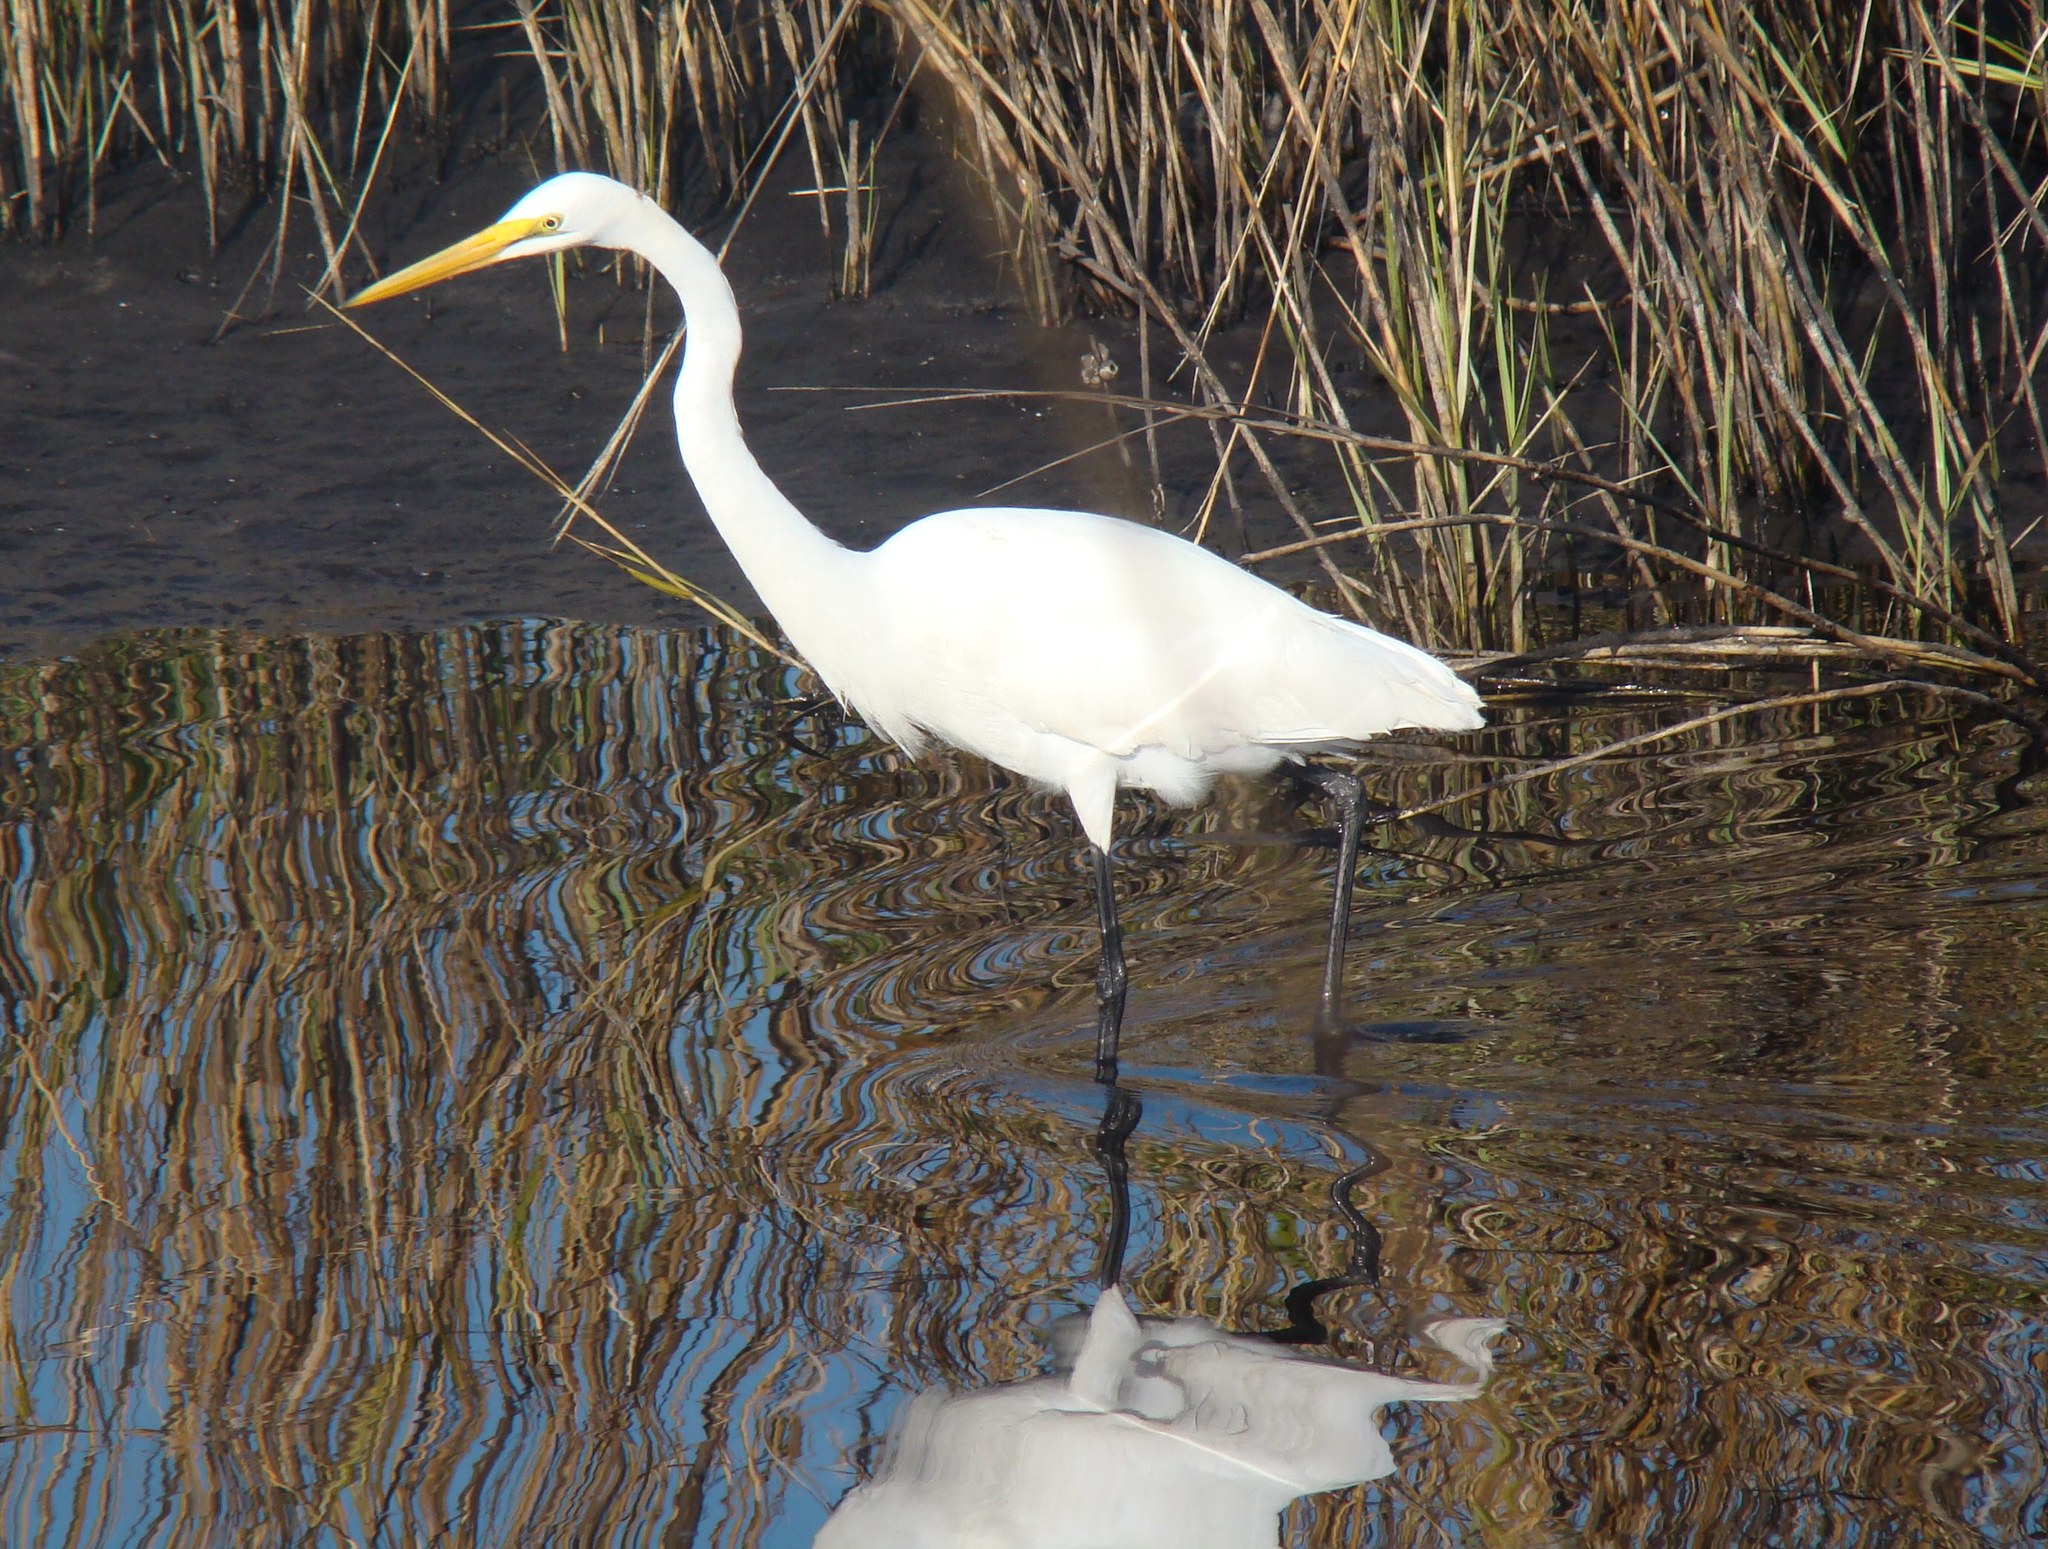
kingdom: Animalia
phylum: Chordata
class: Aves
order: Pelecaniformes
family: Ardeidae
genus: Ardea
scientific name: Ardea alba
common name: Great egret
